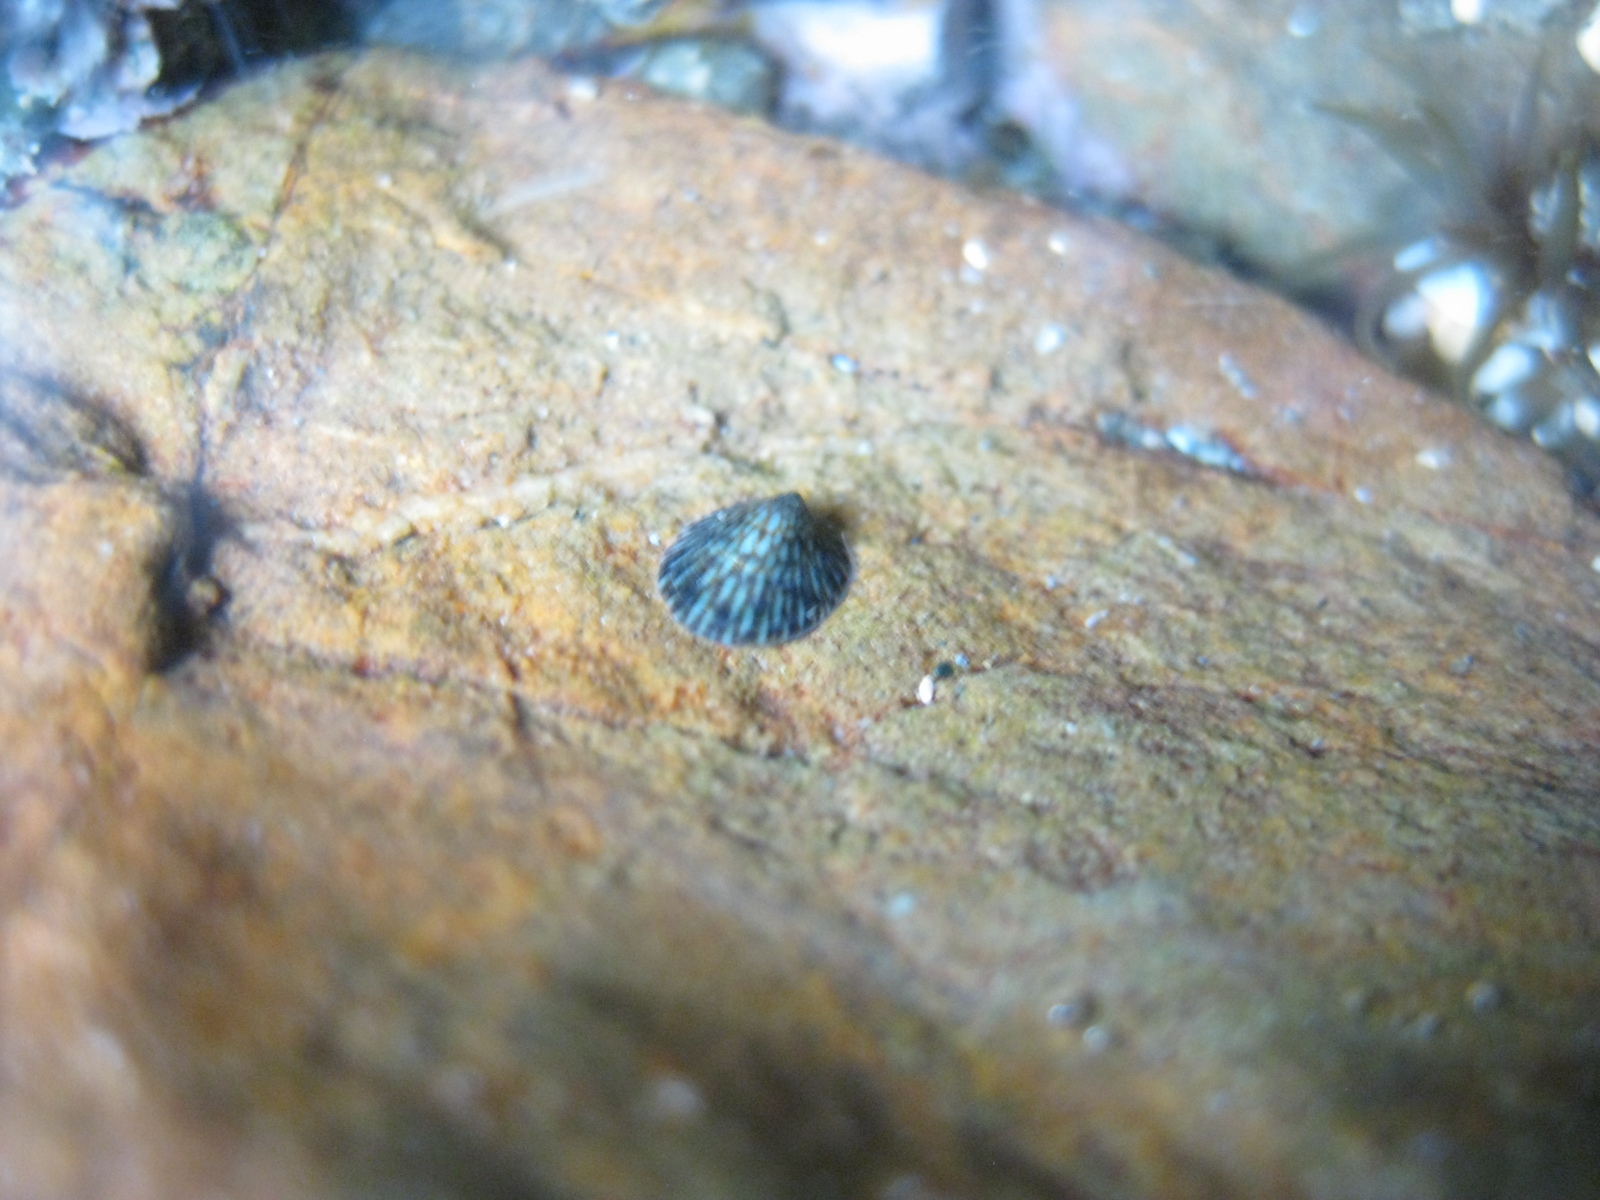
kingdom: Animalia
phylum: Mollusca
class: Gastropoda
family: Lottiidae
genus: Notoacmea
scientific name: Notoacmea elongata
